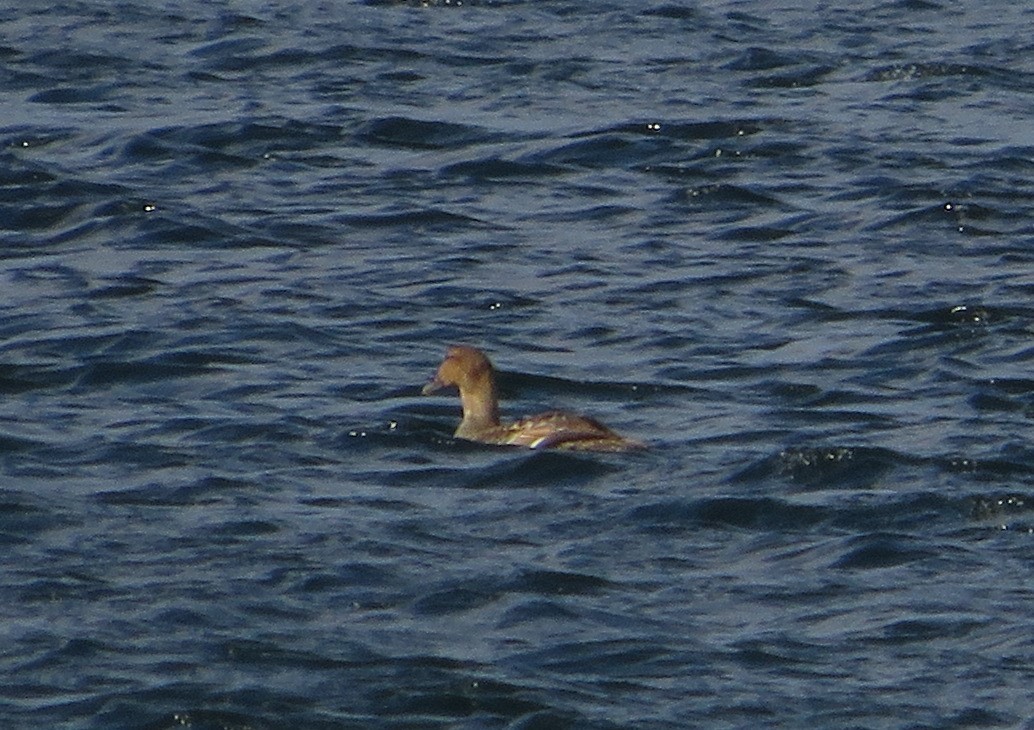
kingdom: Animalia
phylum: Chordata
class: Aves
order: Anseriformes
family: Anatidae
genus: Somateria
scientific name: Somateria mollissima
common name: Common eider
